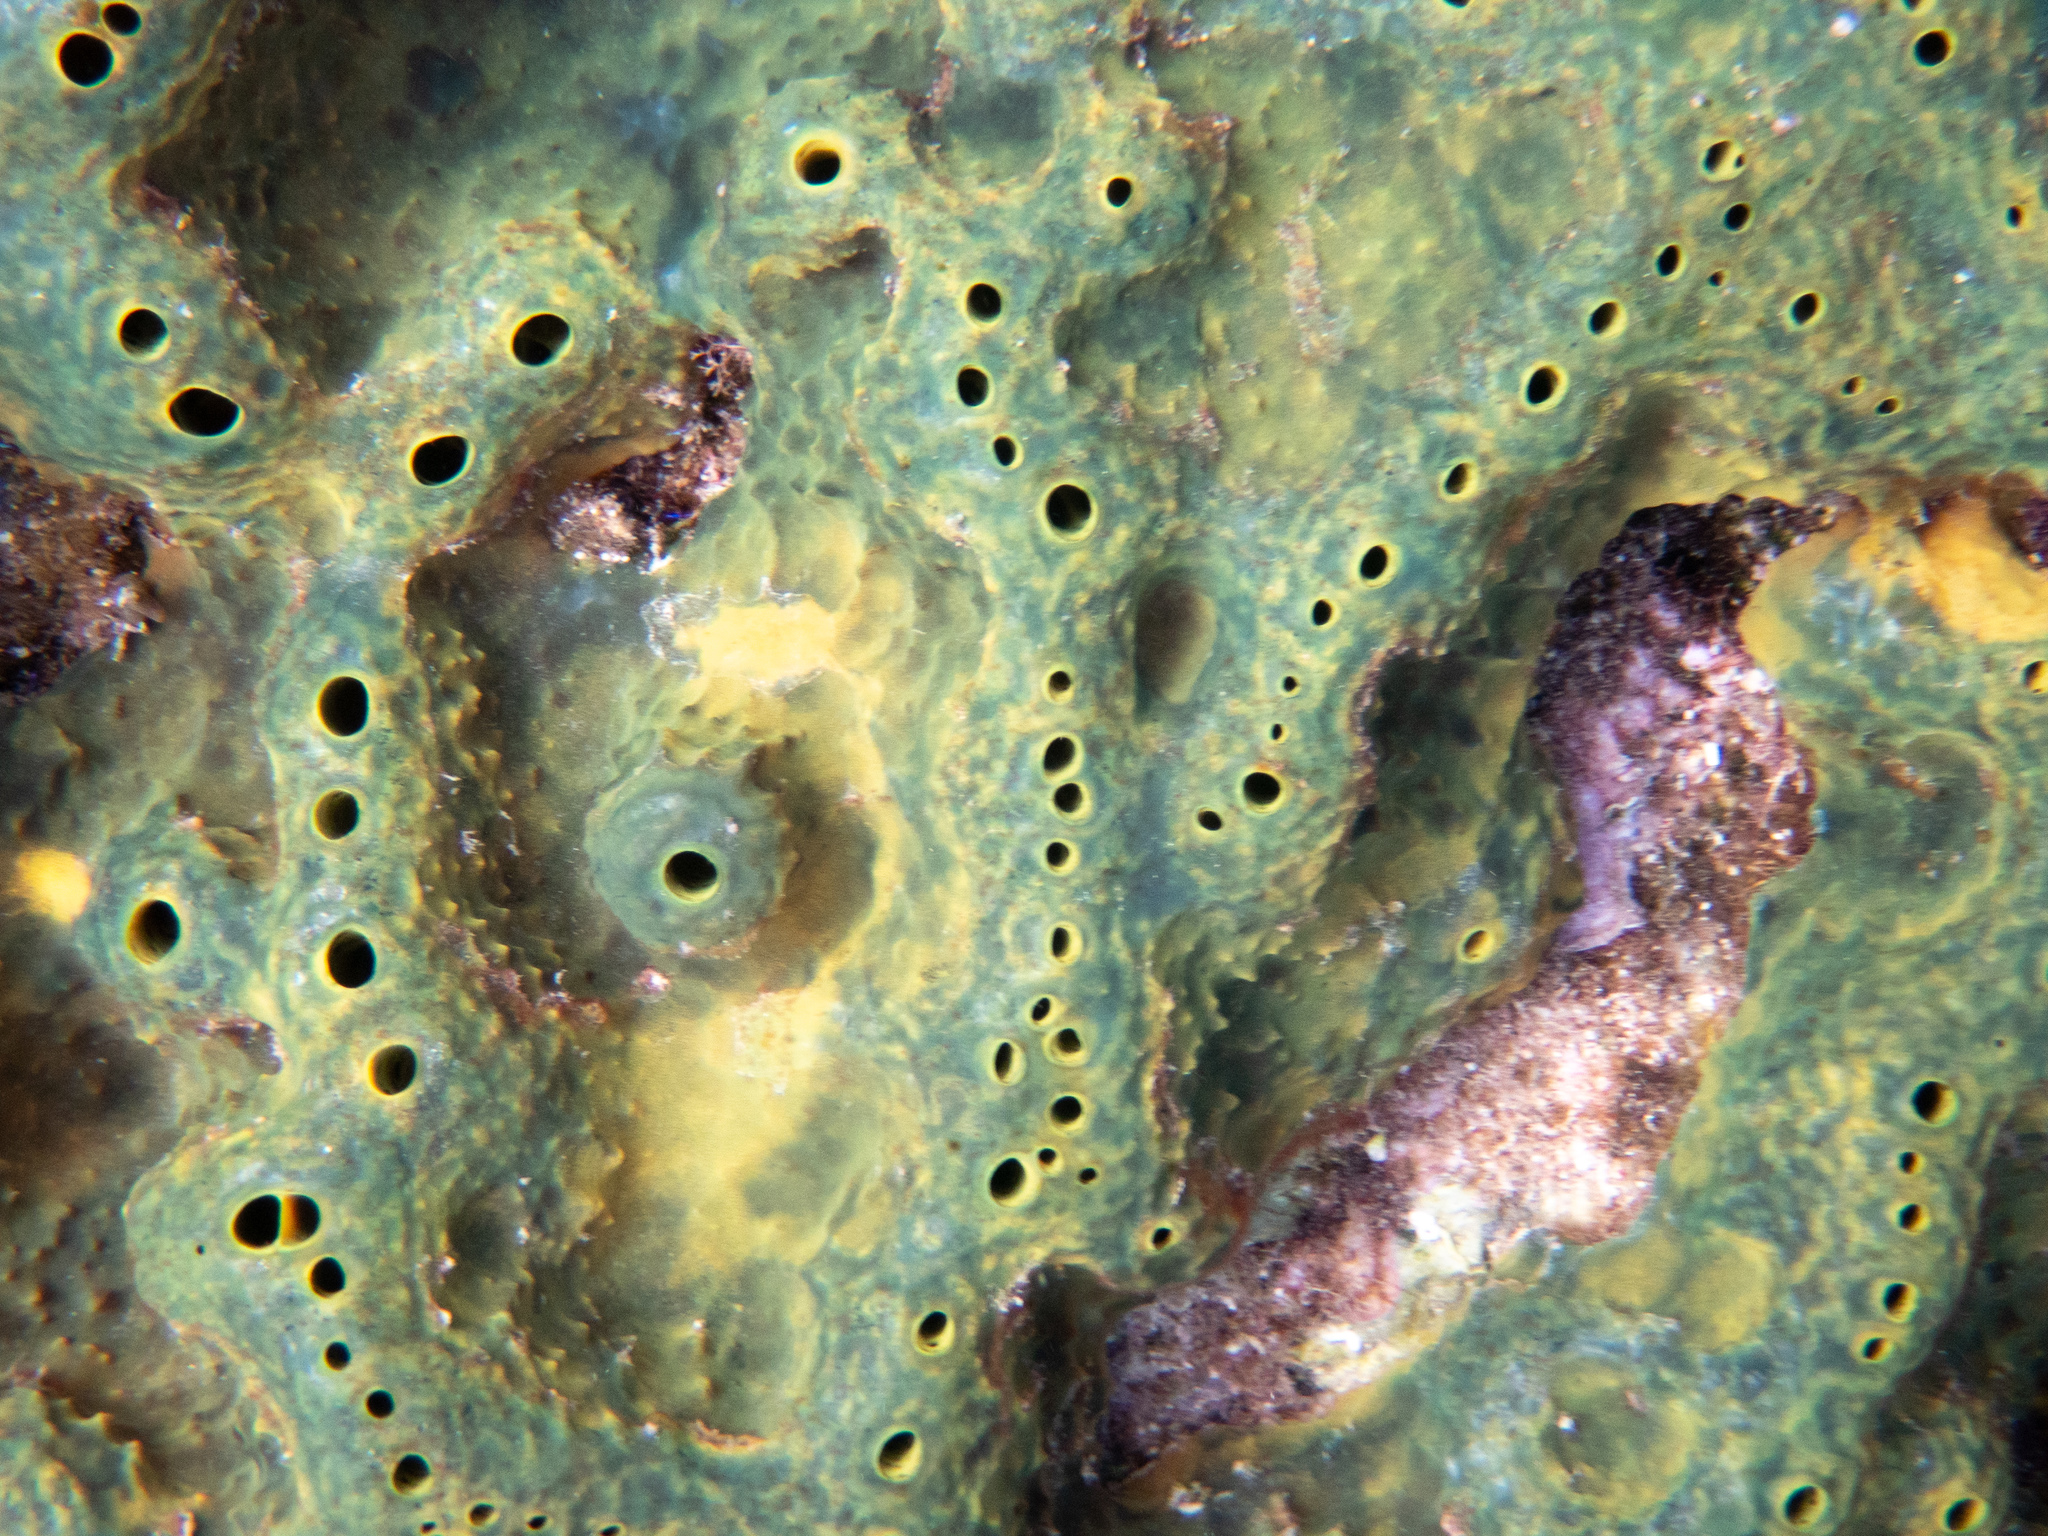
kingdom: Animalia
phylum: Porifera
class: Demospongiae
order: Verongiida
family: Aplysinidae
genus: Verongula
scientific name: Verongula rigida
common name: Pitted sponge
